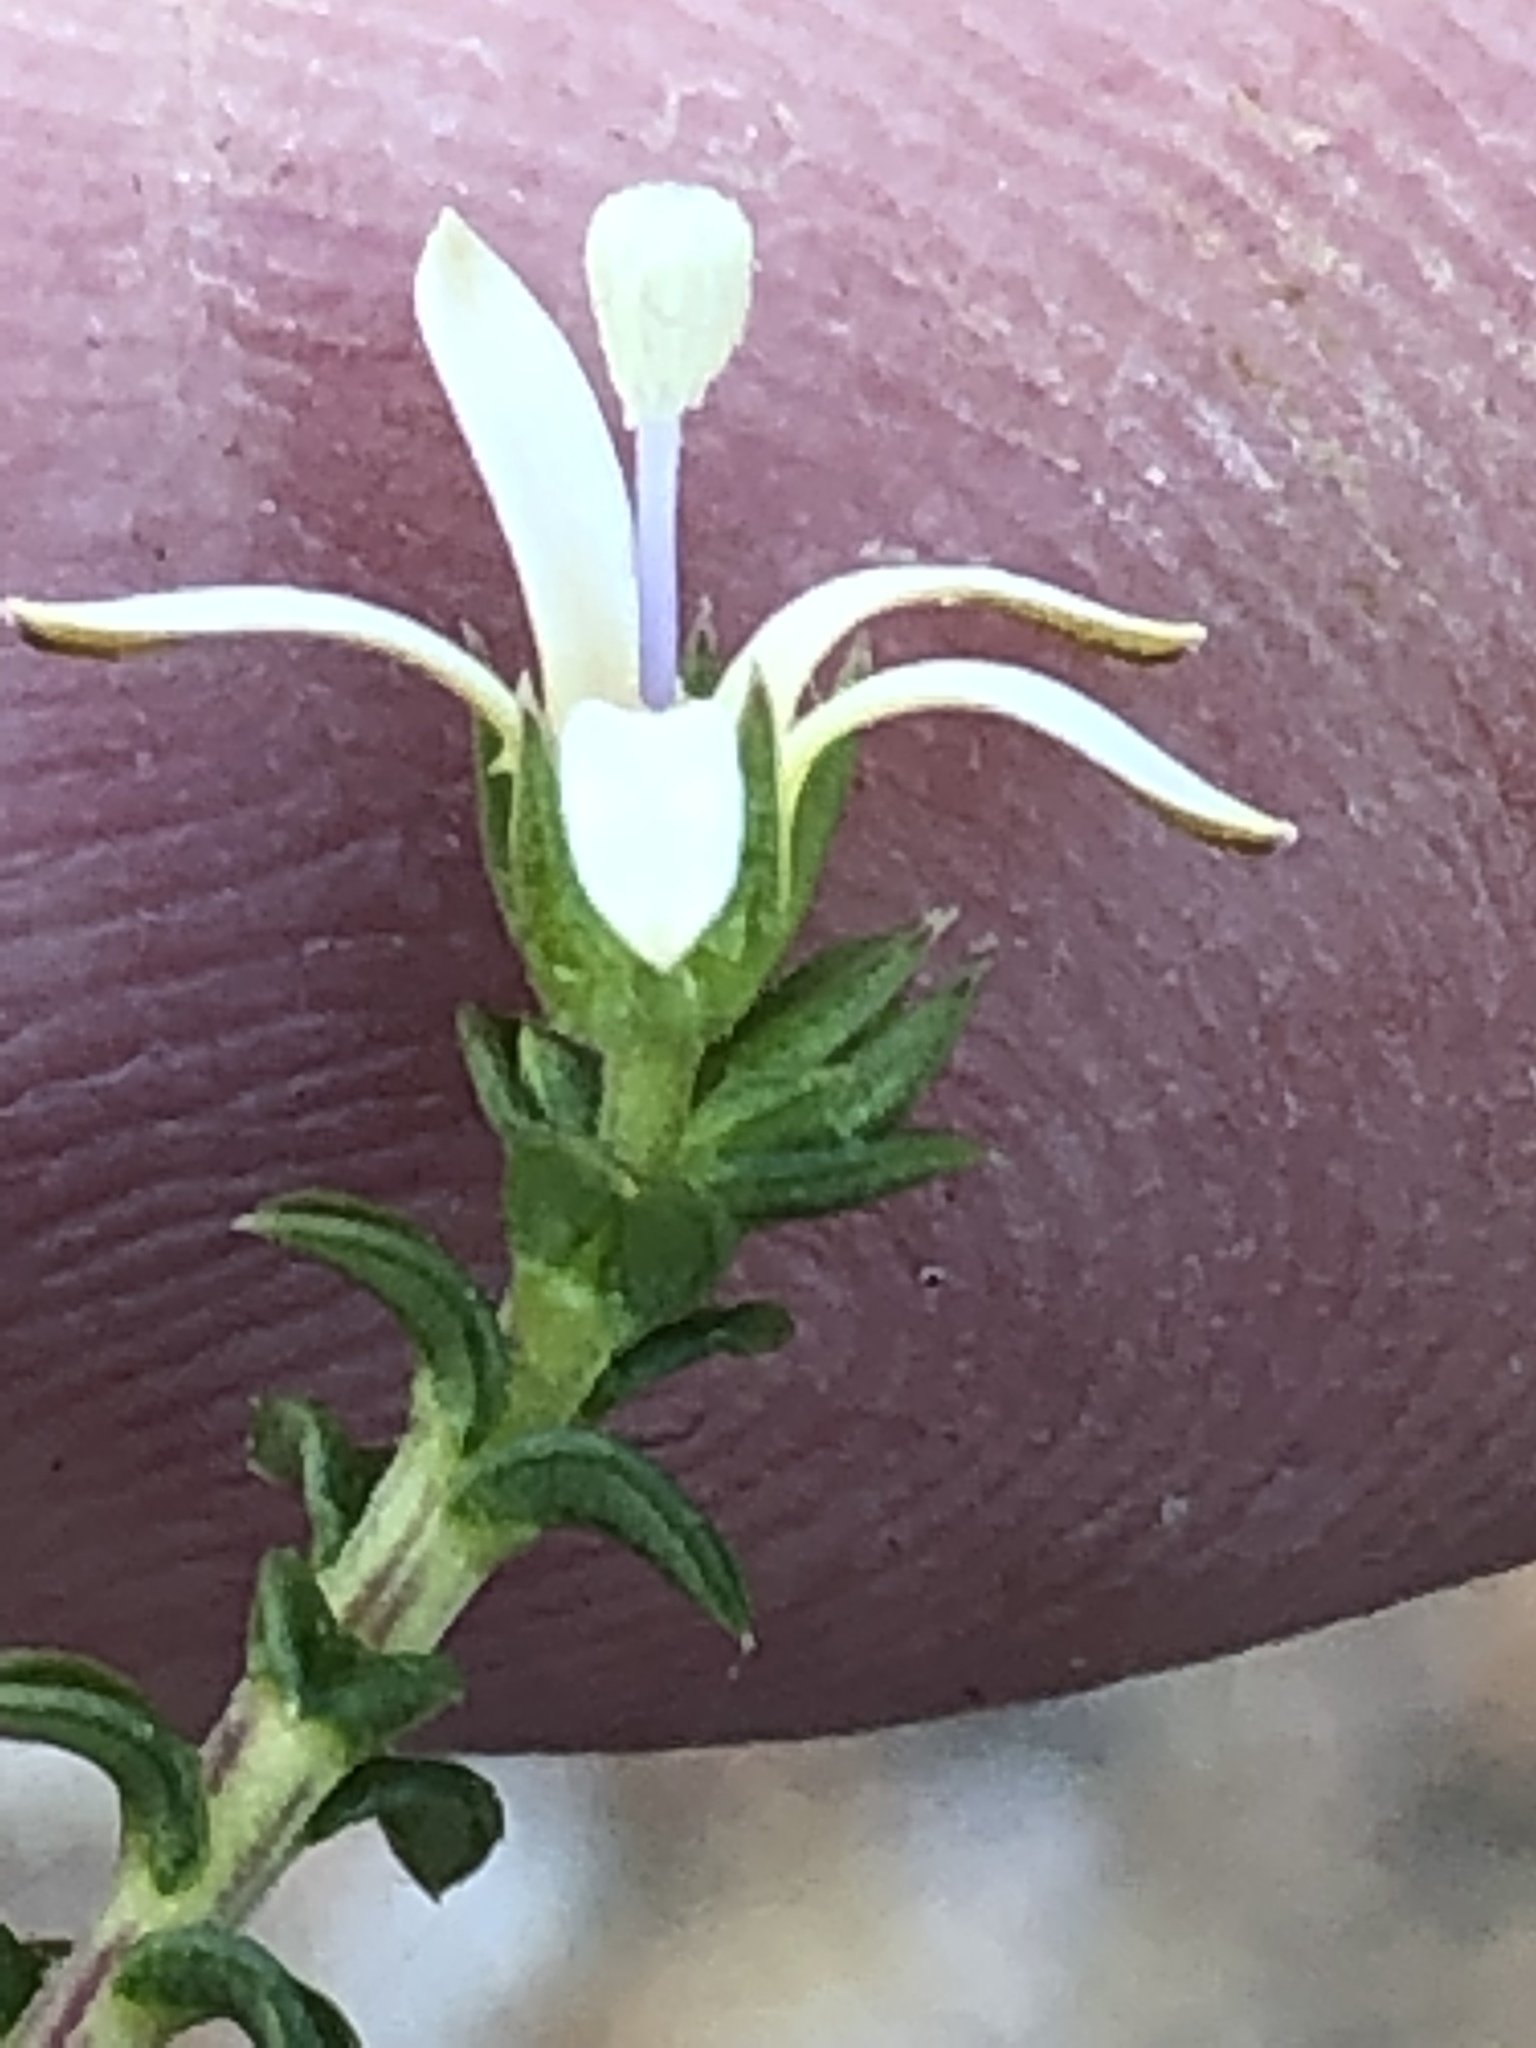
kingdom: Plantae
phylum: Tracheophyta
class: Magnoliopsida
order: Asterales
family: Campanulaceae
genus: Wahlenbergia
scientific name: Wahlenbergia neorigida
